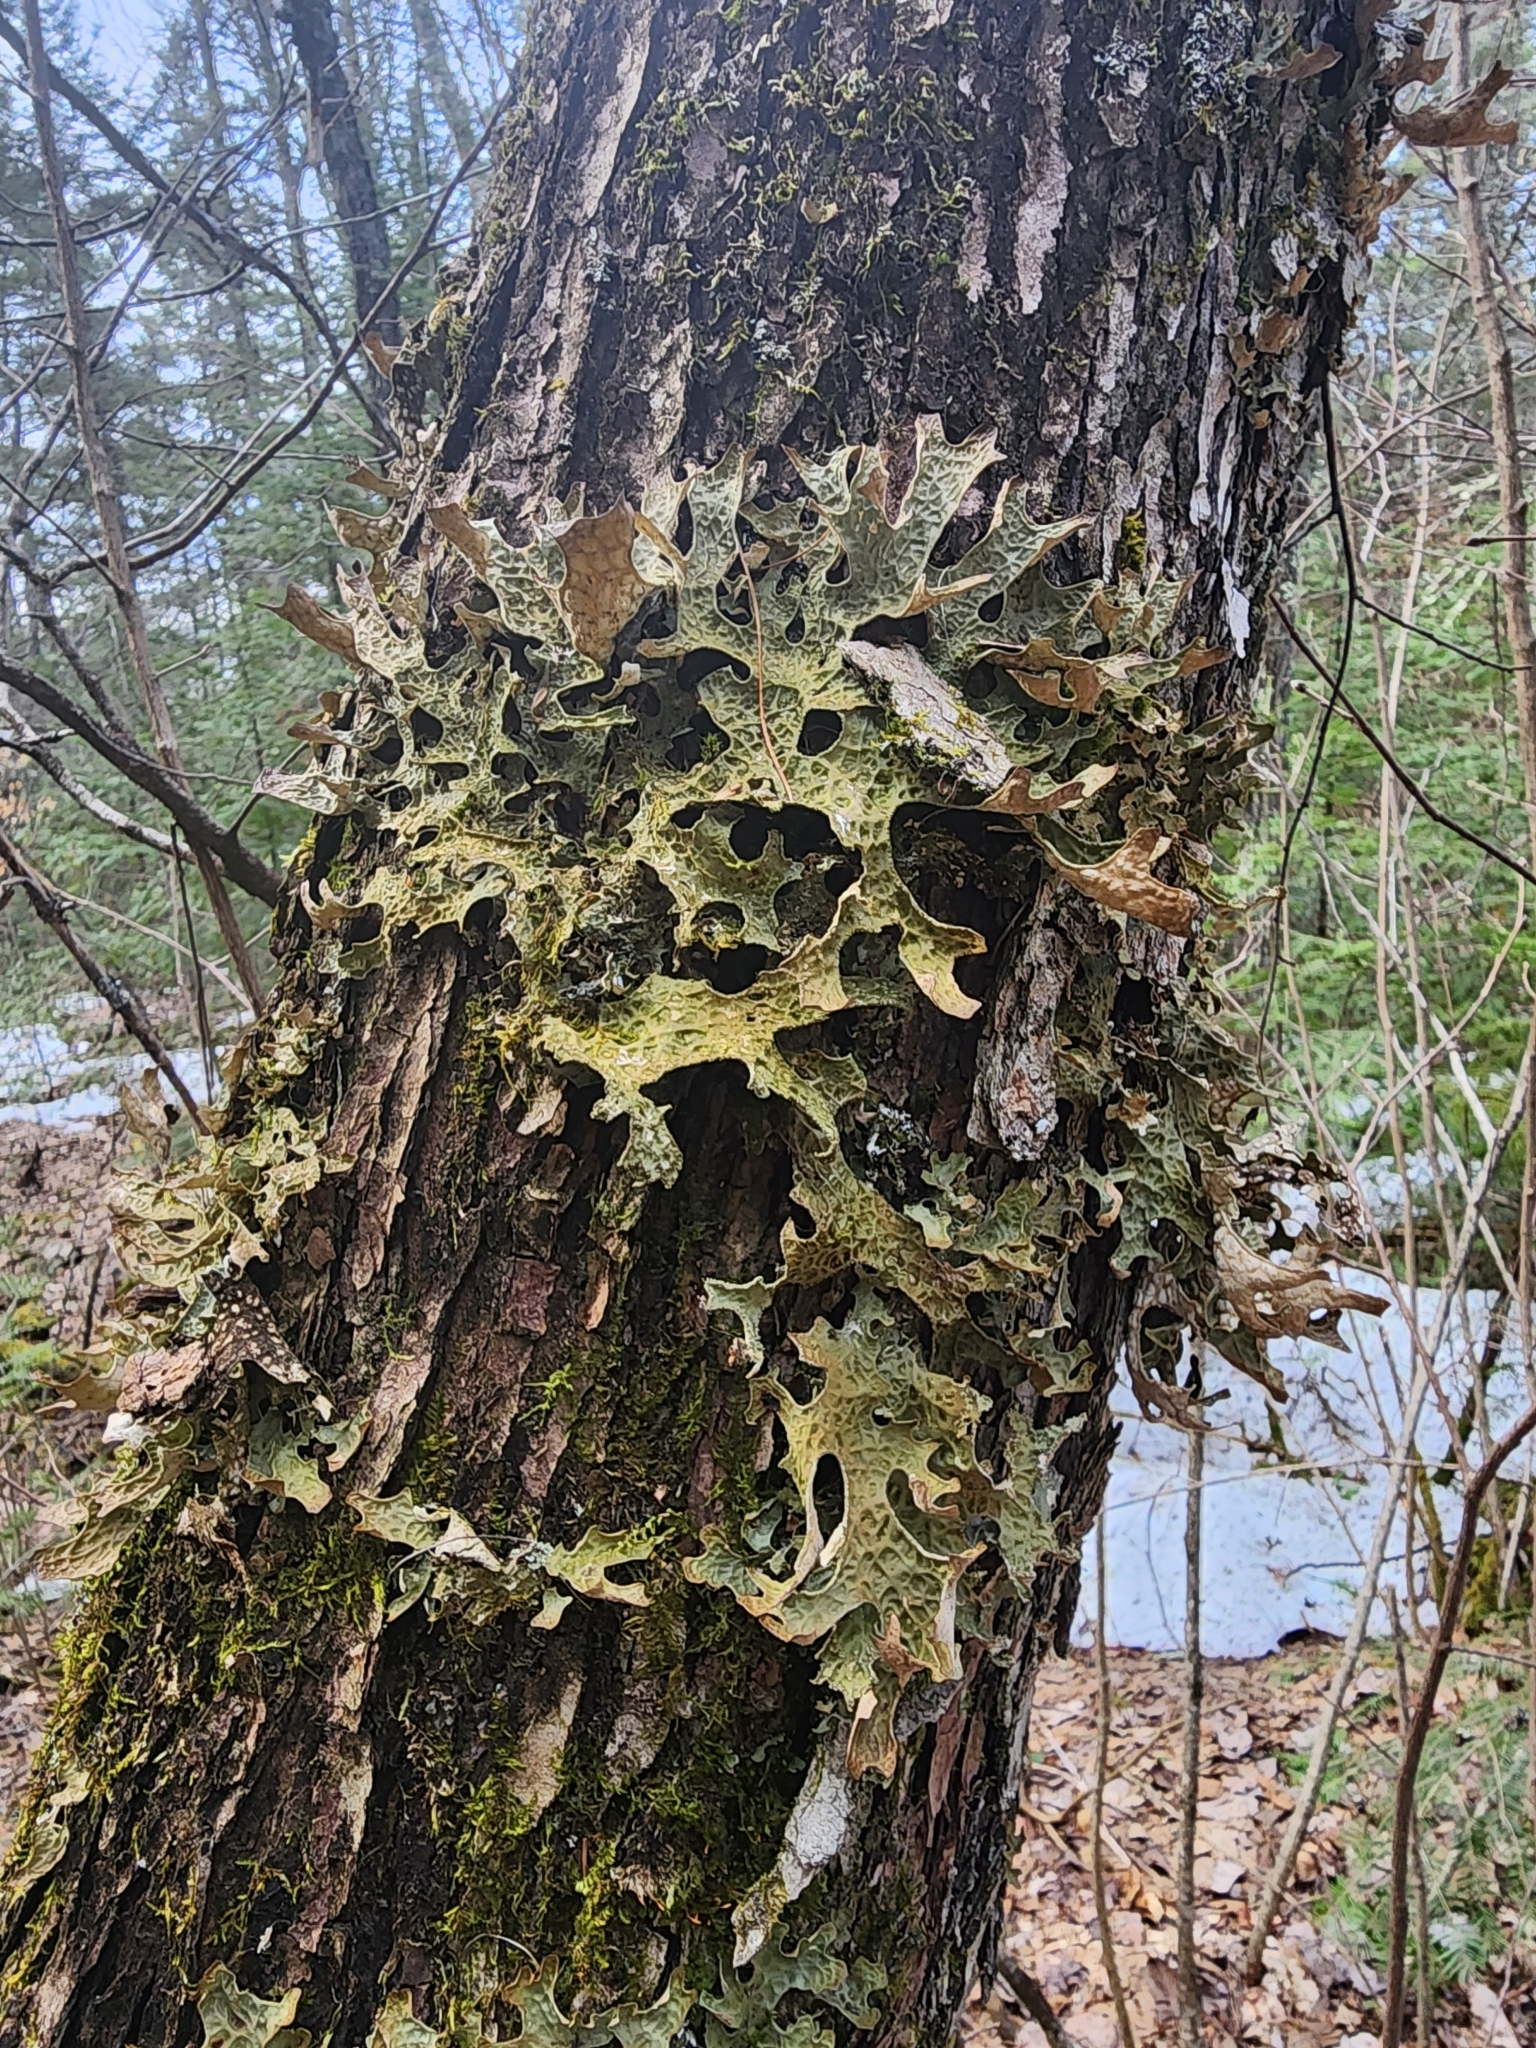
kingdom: Fungi
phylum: Ascomycota
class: Lecanoromycetes
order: Peltigerales
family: Lobariaceae
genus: Lobaria
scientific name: Lobaria pulmonaria
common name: Lungwort
